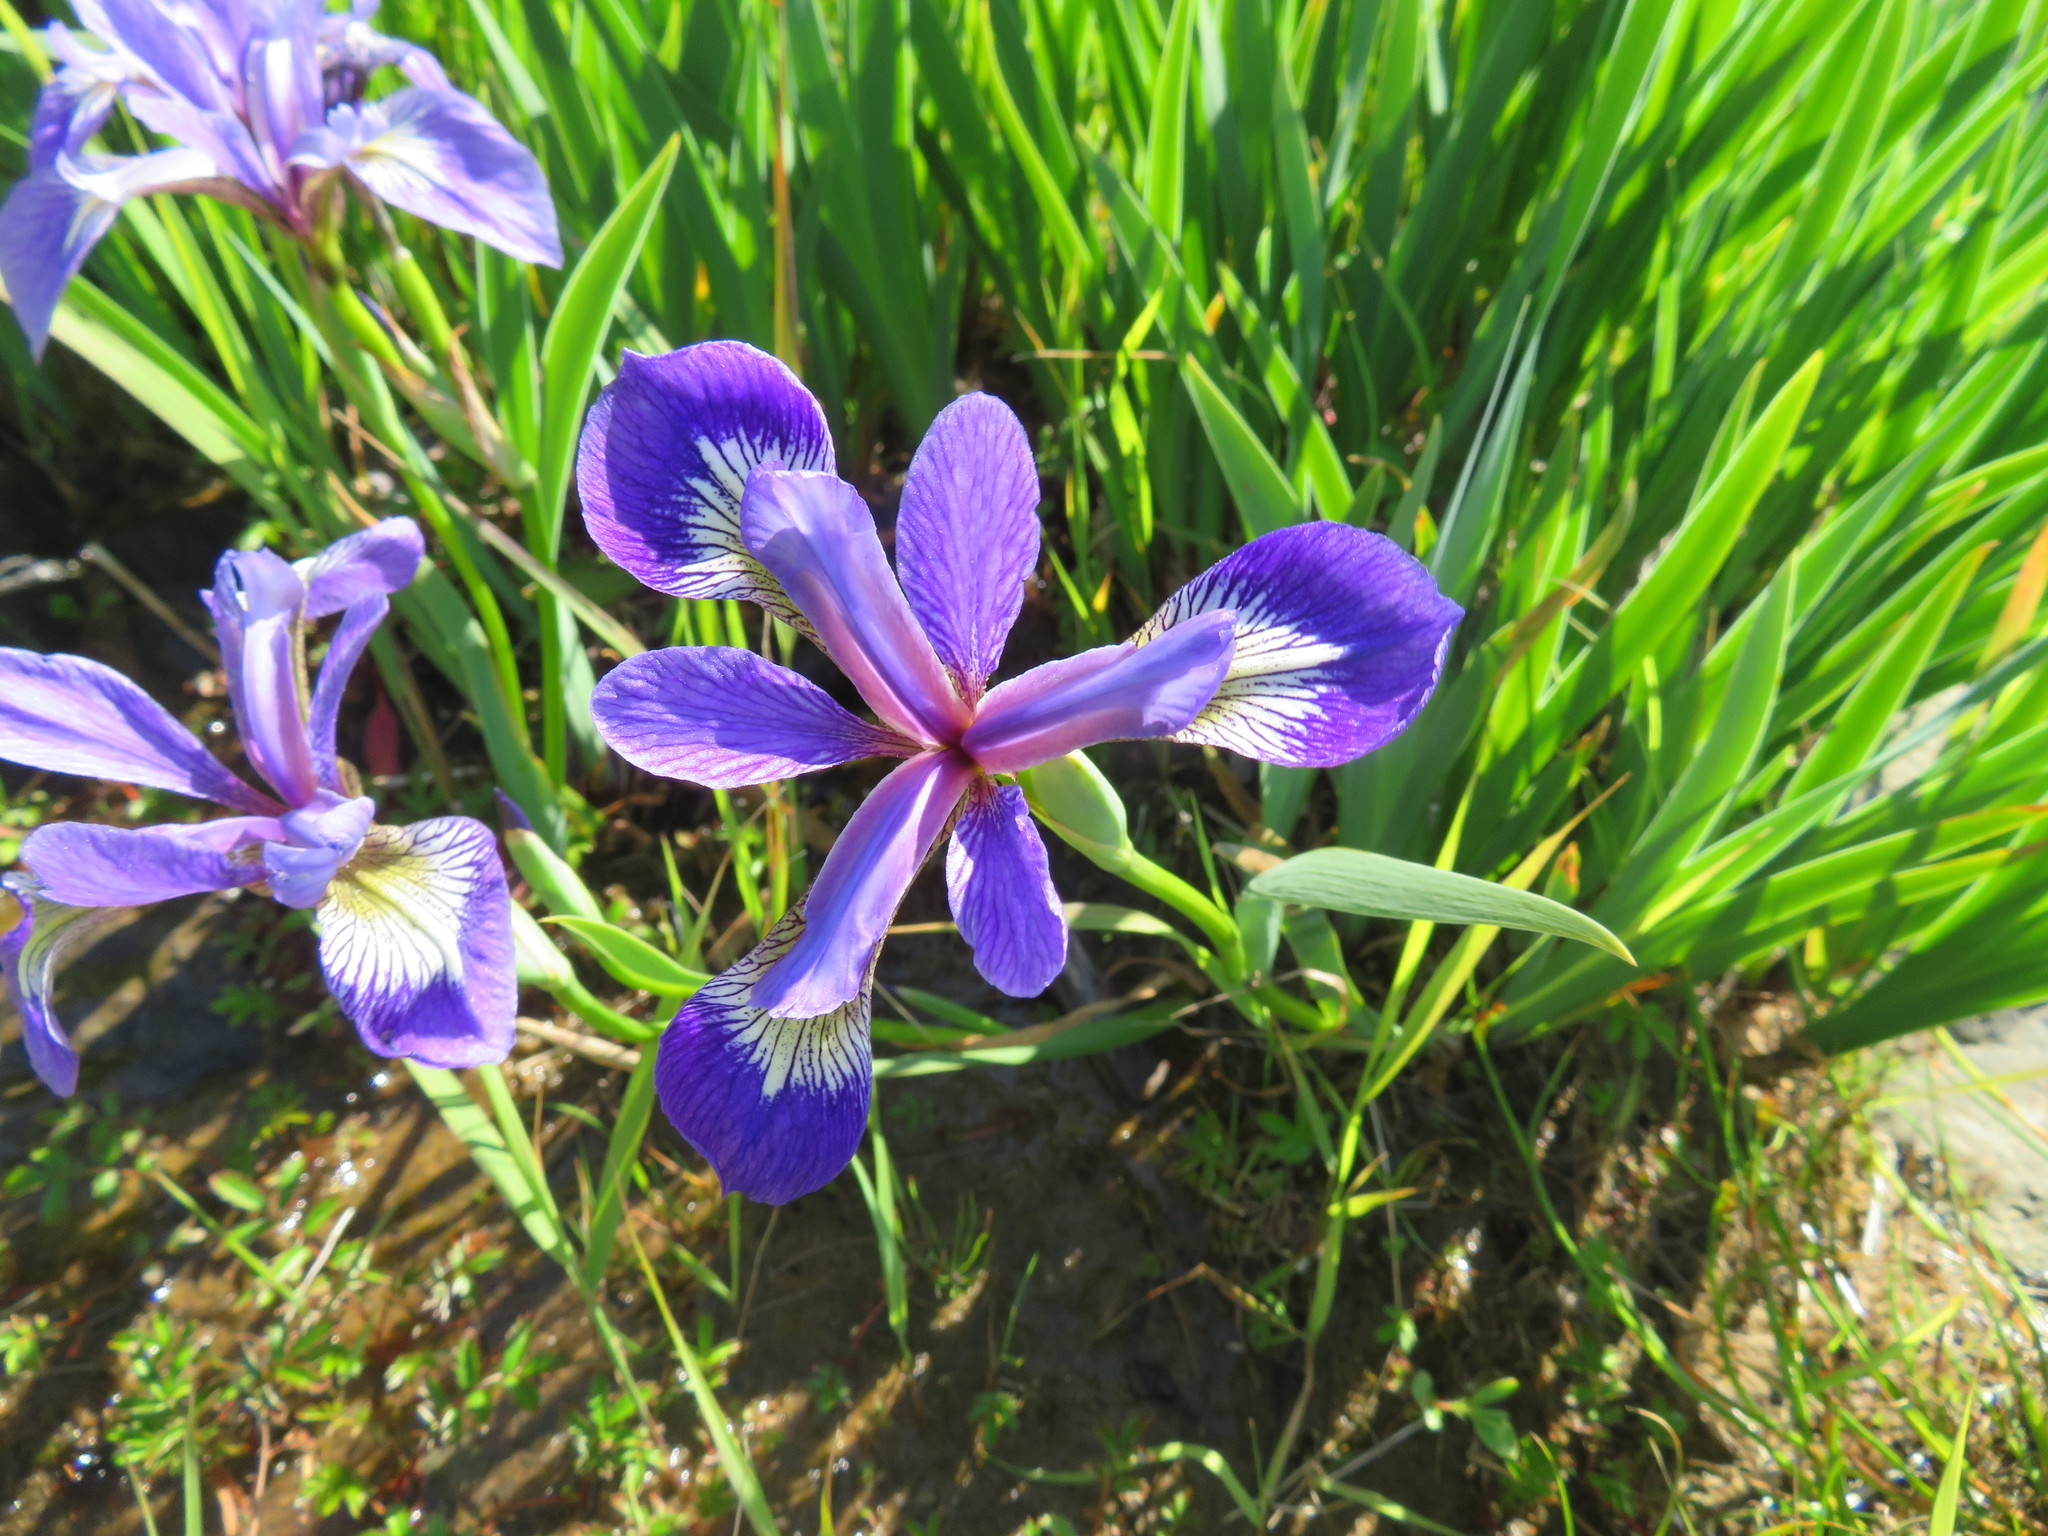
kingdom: Plantae
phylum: Tracheophyta
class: Liliopsida
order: Asparagales
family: Iridaceae
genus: Iris
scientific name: Iris versicolor
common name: Purple iris
